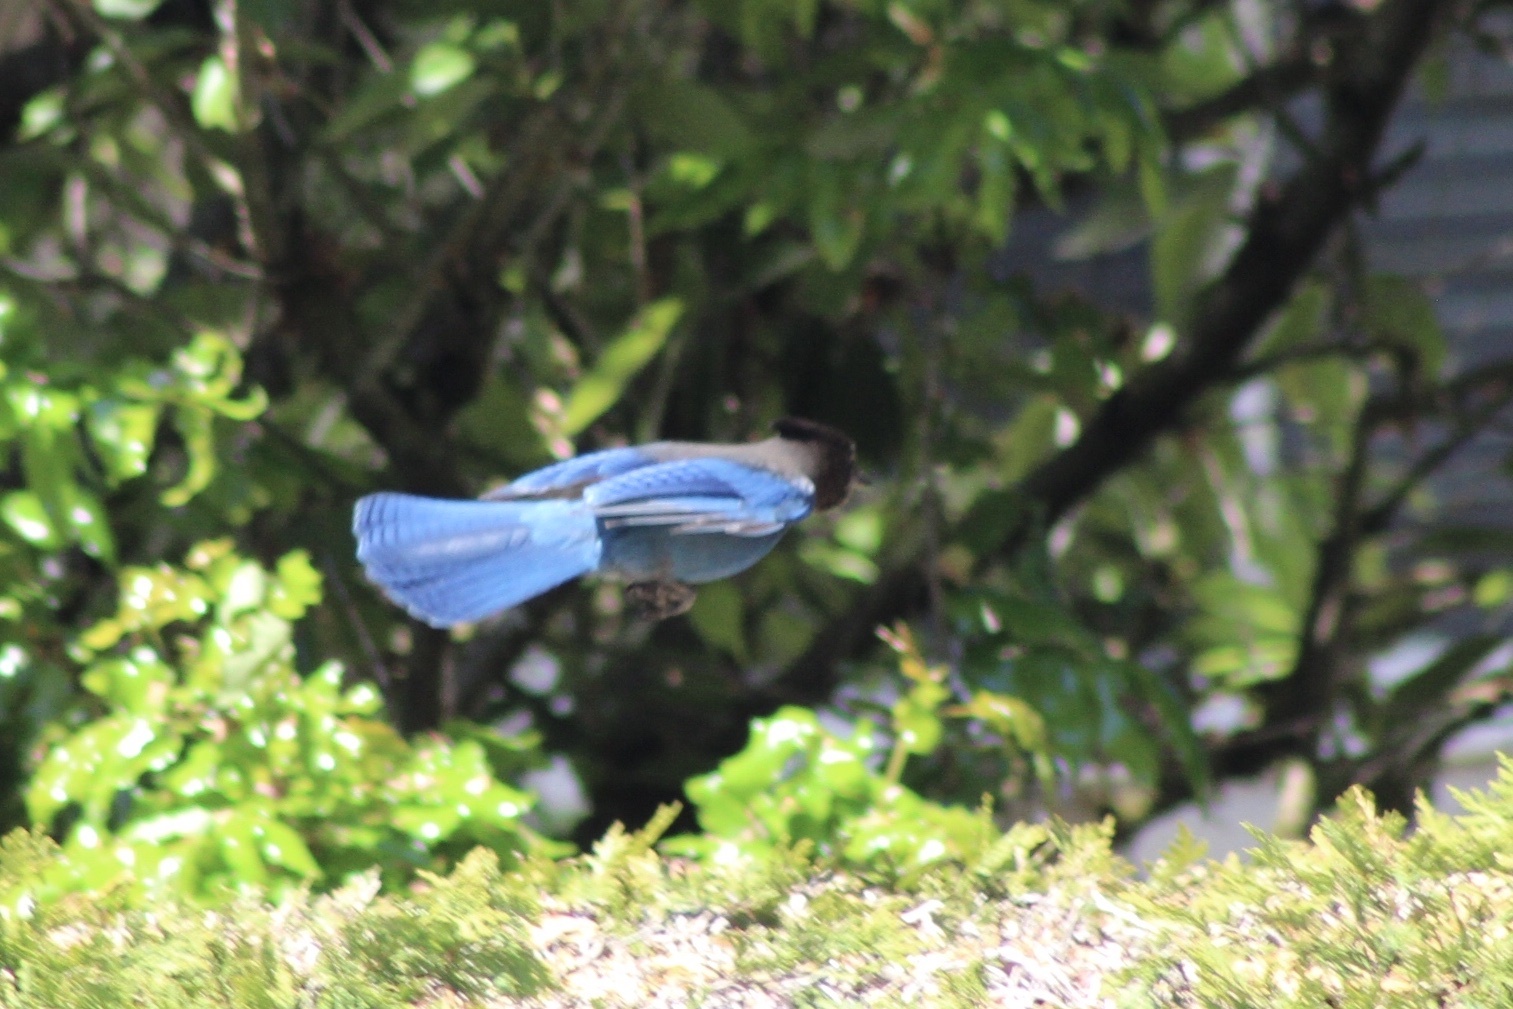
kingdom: Animalia
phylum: Chordata
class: Aves
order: Passeriformes
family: Corvidae
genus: Cyanocitta
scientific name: Cyanocitta stelleri
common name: Steller's jay
